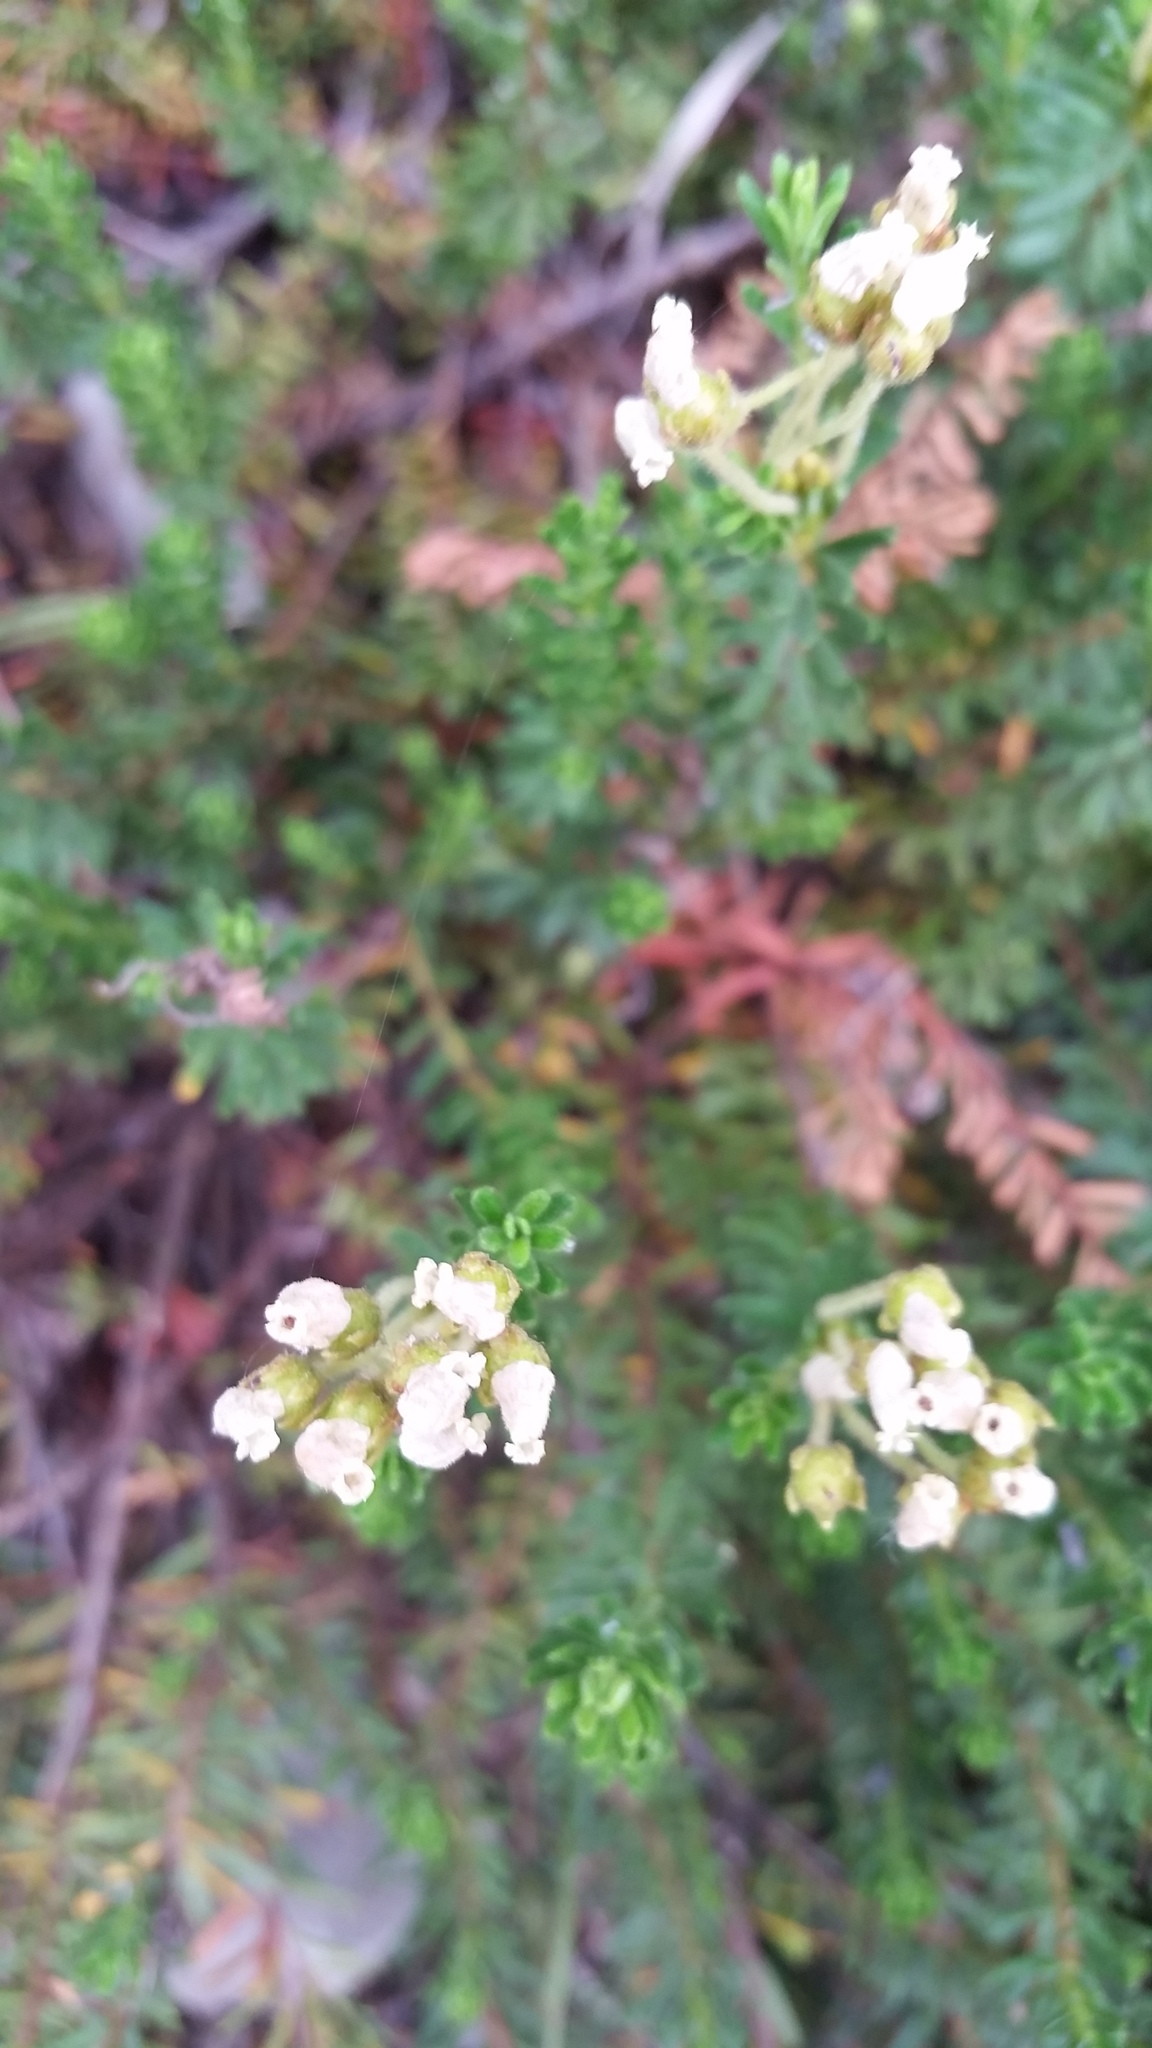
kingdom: Plantae
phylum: Tracheophyta
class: Magnoliopsida
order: Ericales
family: Ericaceae
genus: Phyllodoce
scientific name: Phyllodoce glanduliflora
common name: Cream mountain heather
